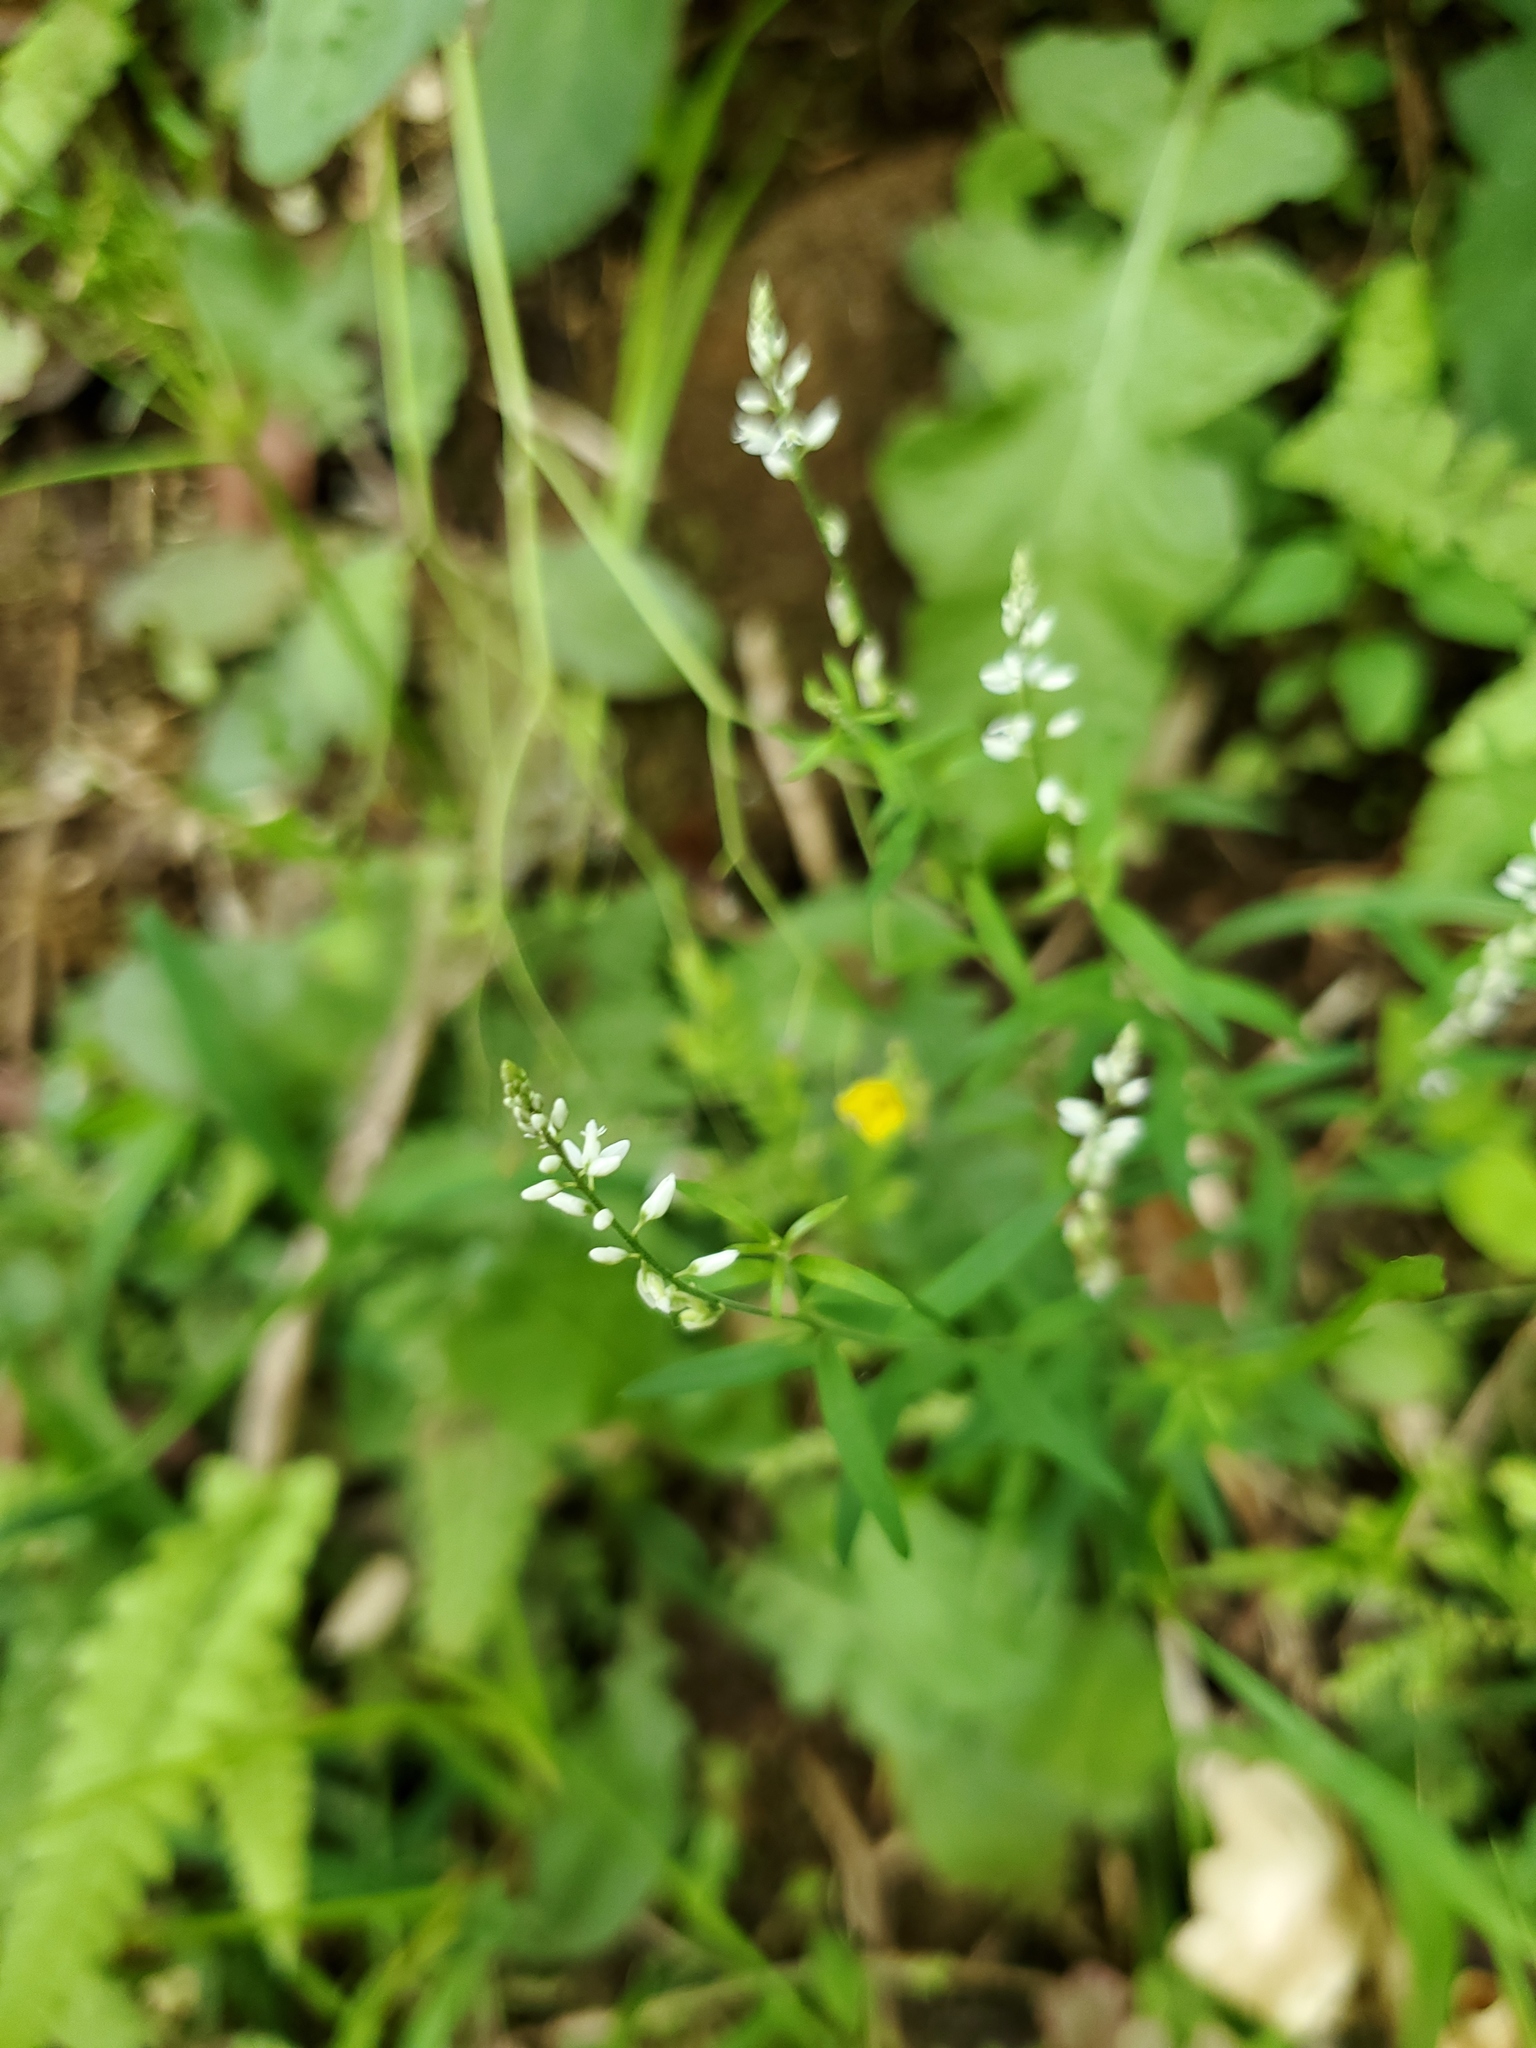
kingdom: Plantae
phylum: Tracheophyta
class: Magnoliopsida
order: Fabales
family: Polygalaceae
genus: Polygala
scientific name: Polygala paniculata
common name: Orosne
